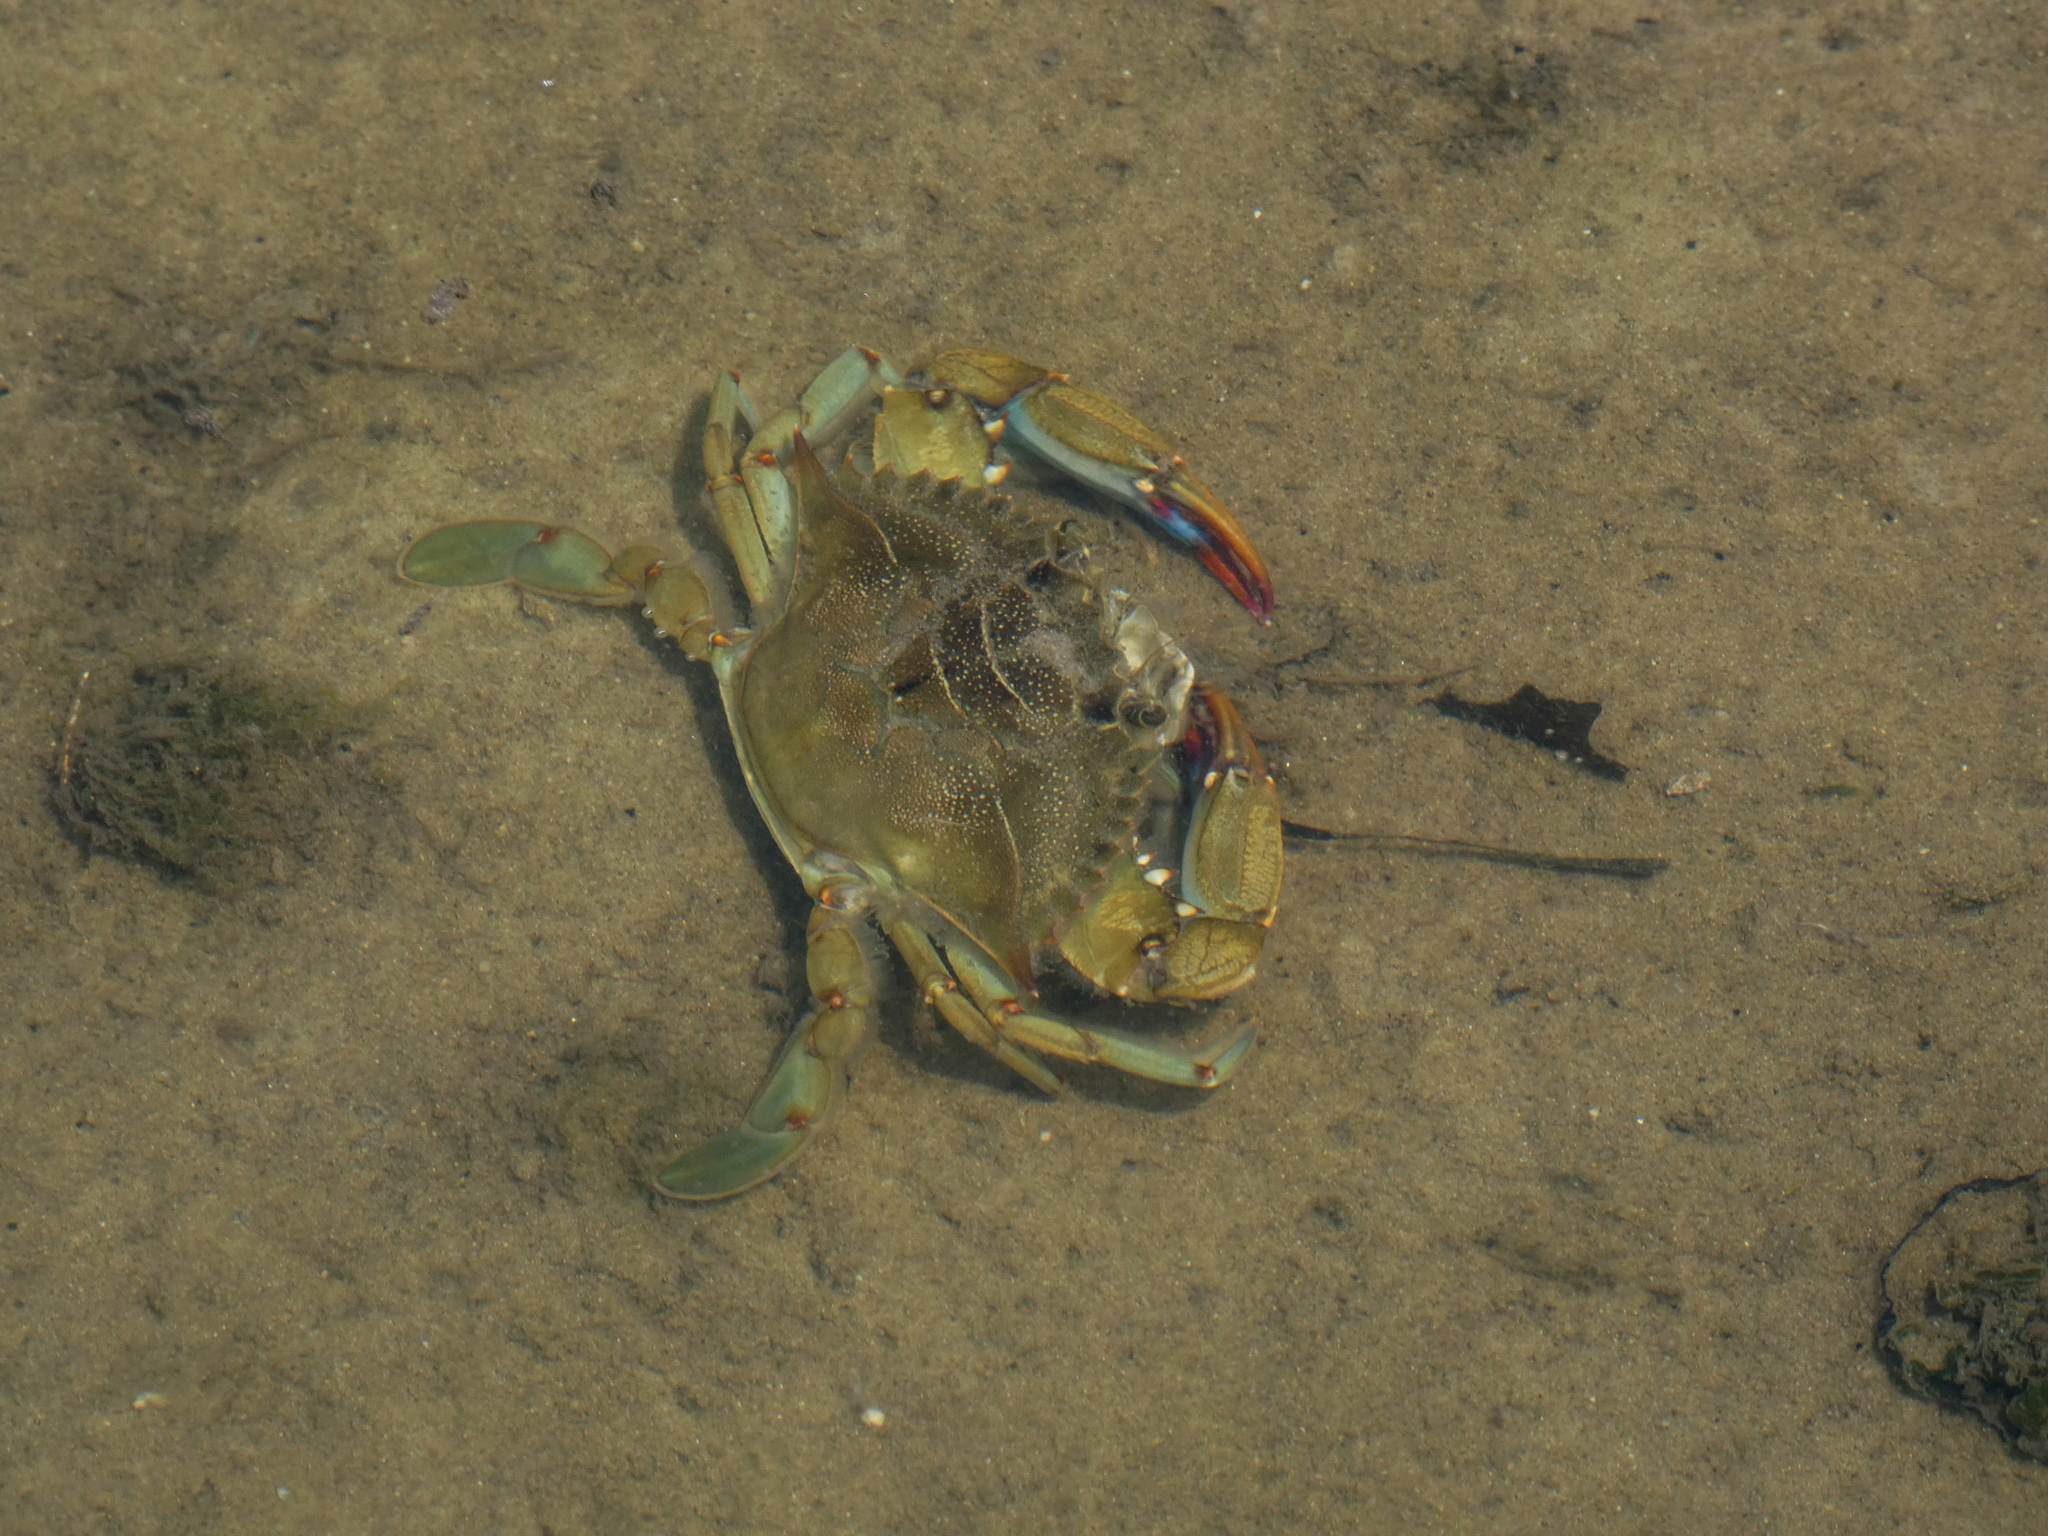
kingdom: Animalia
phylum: Arthropoda
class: Malacostraca
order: Decapoda
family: Portunidae
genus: Callinectes
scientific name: Callinectes sapidus
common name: Blue crab
